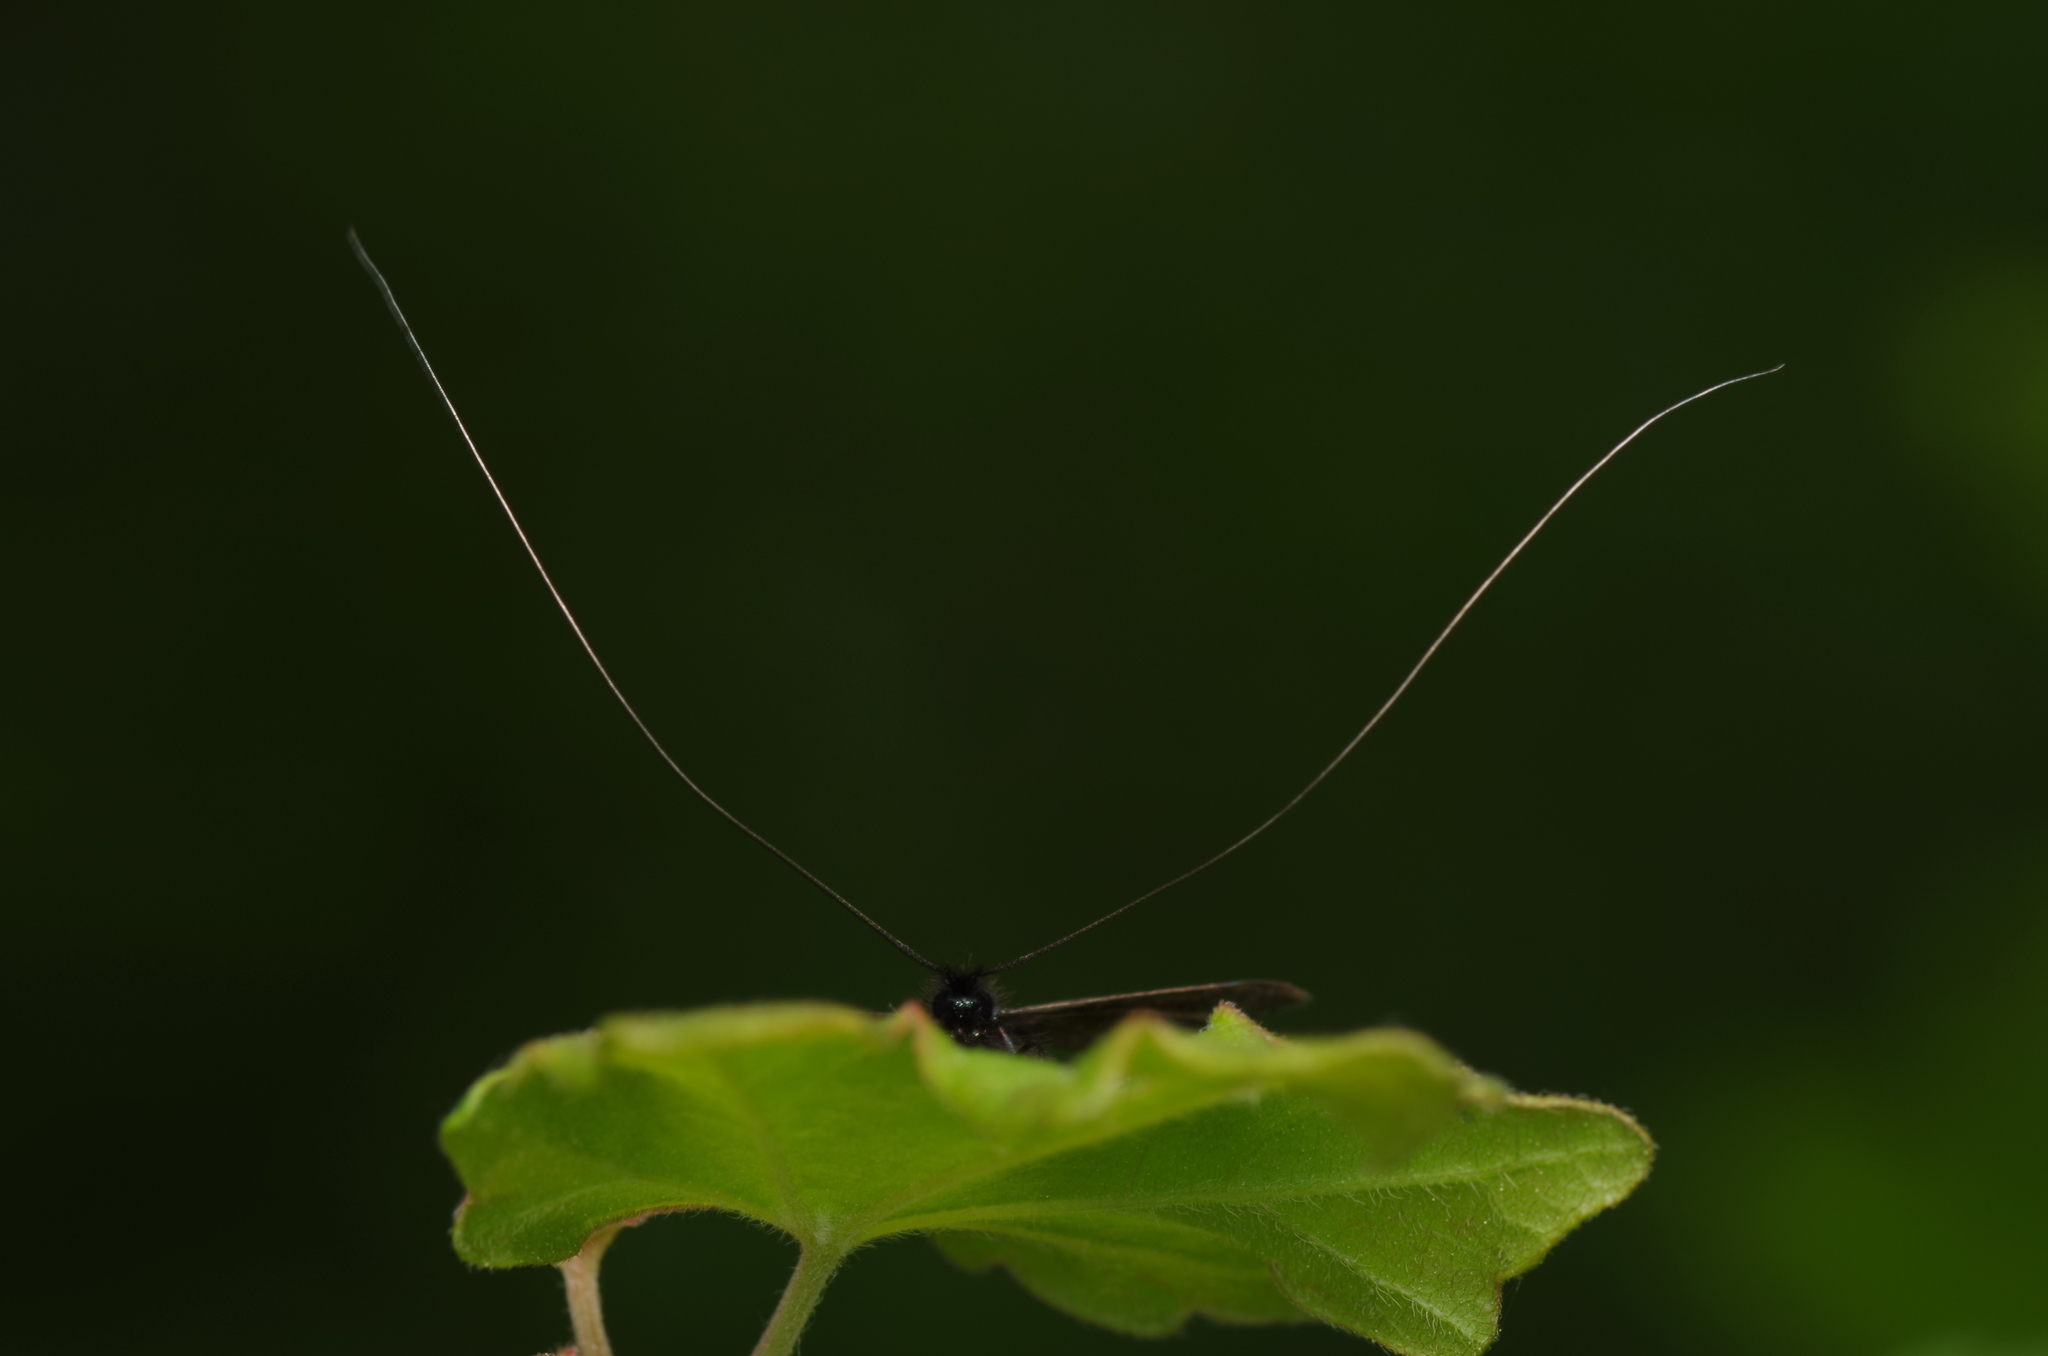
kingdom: Animalia
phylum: Arthropoda
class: Insecta
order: Lepidoptera
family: Adelidae
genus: Adela
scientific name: Adela viridella
